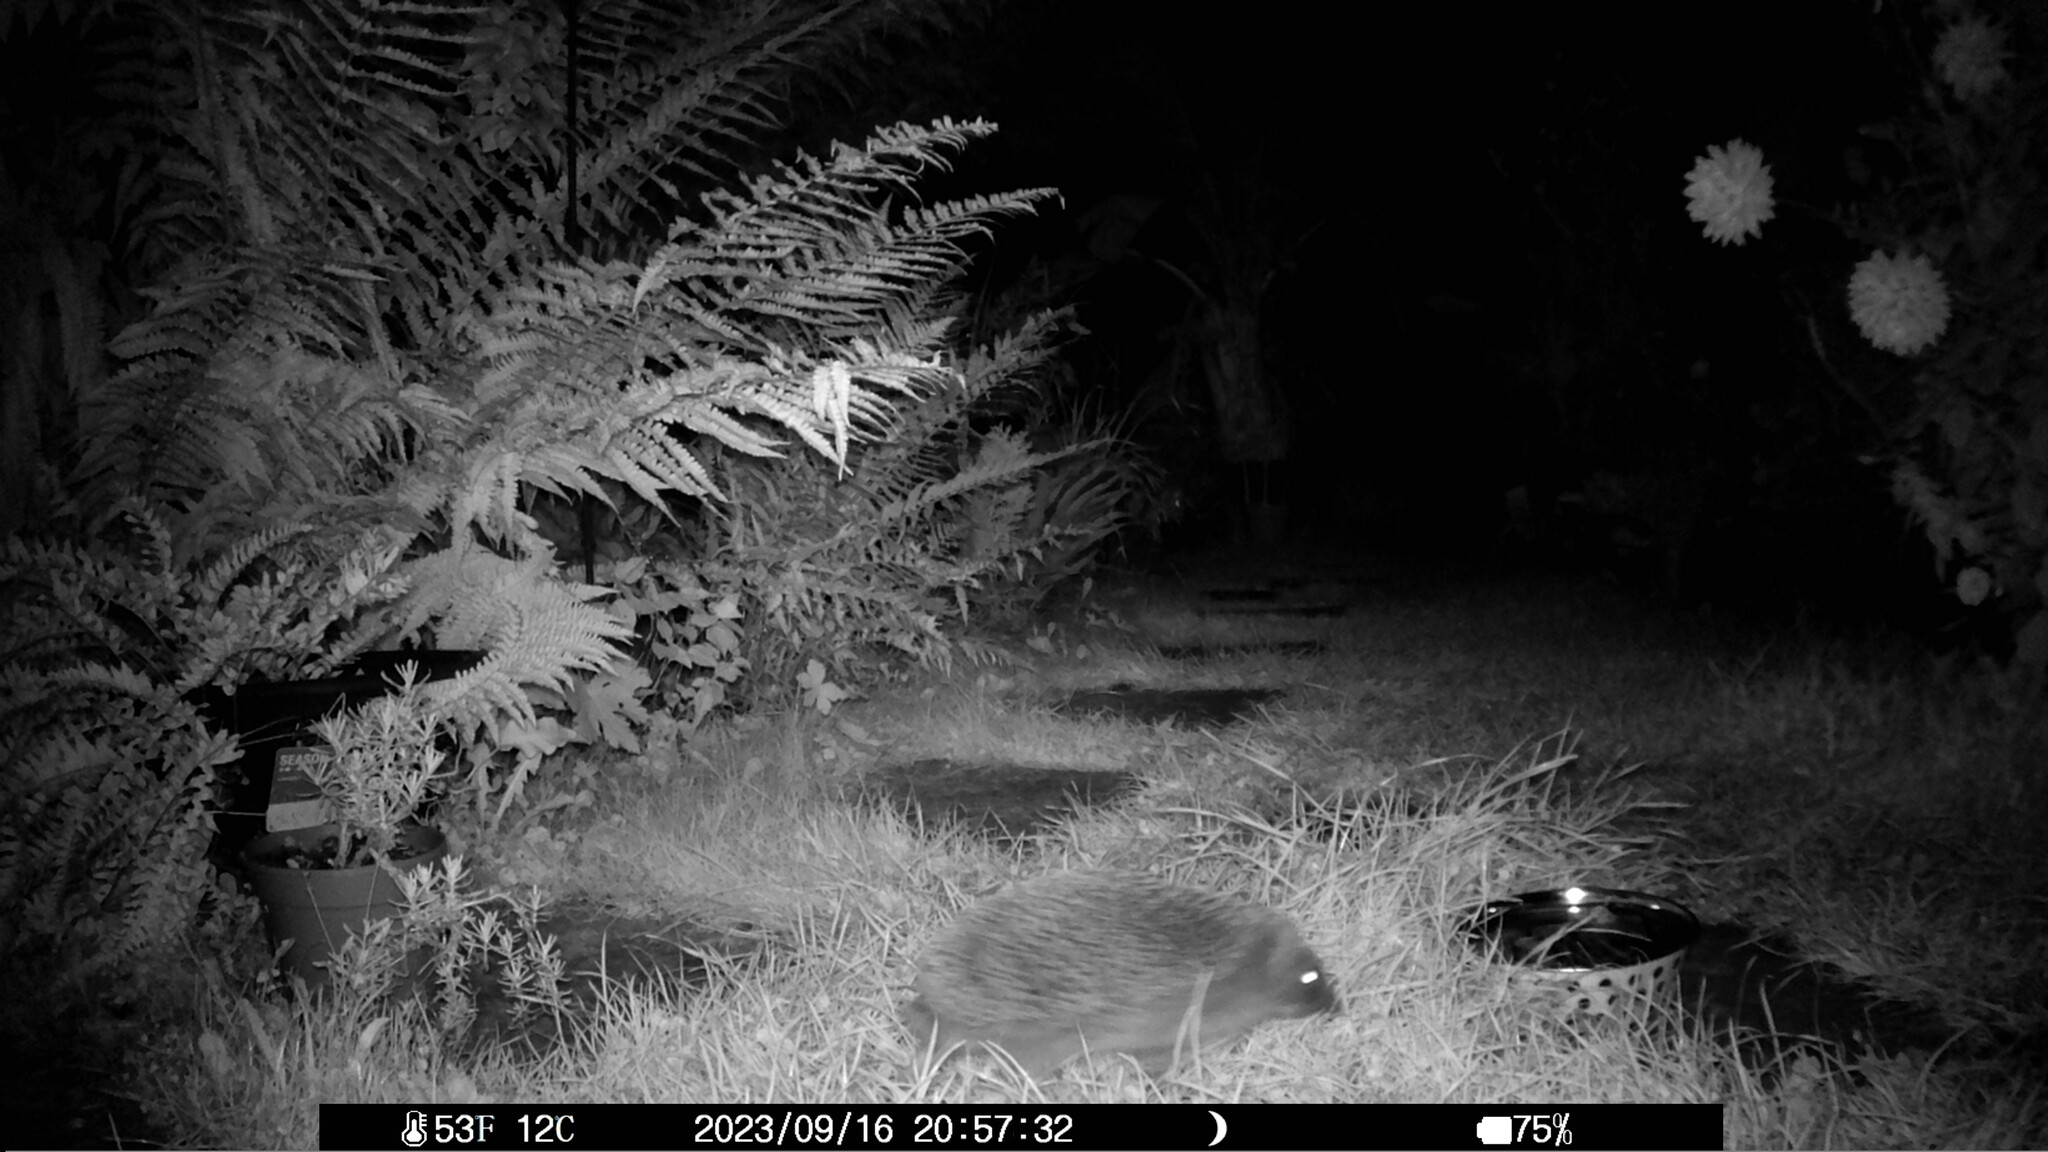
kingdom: Animalia
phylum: Chordata
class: Mammalia
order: Erinaceomorpha
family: Erinaceidae
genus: Erinaceus
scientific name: Erinaceus europaeus
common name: West european hedgehog
